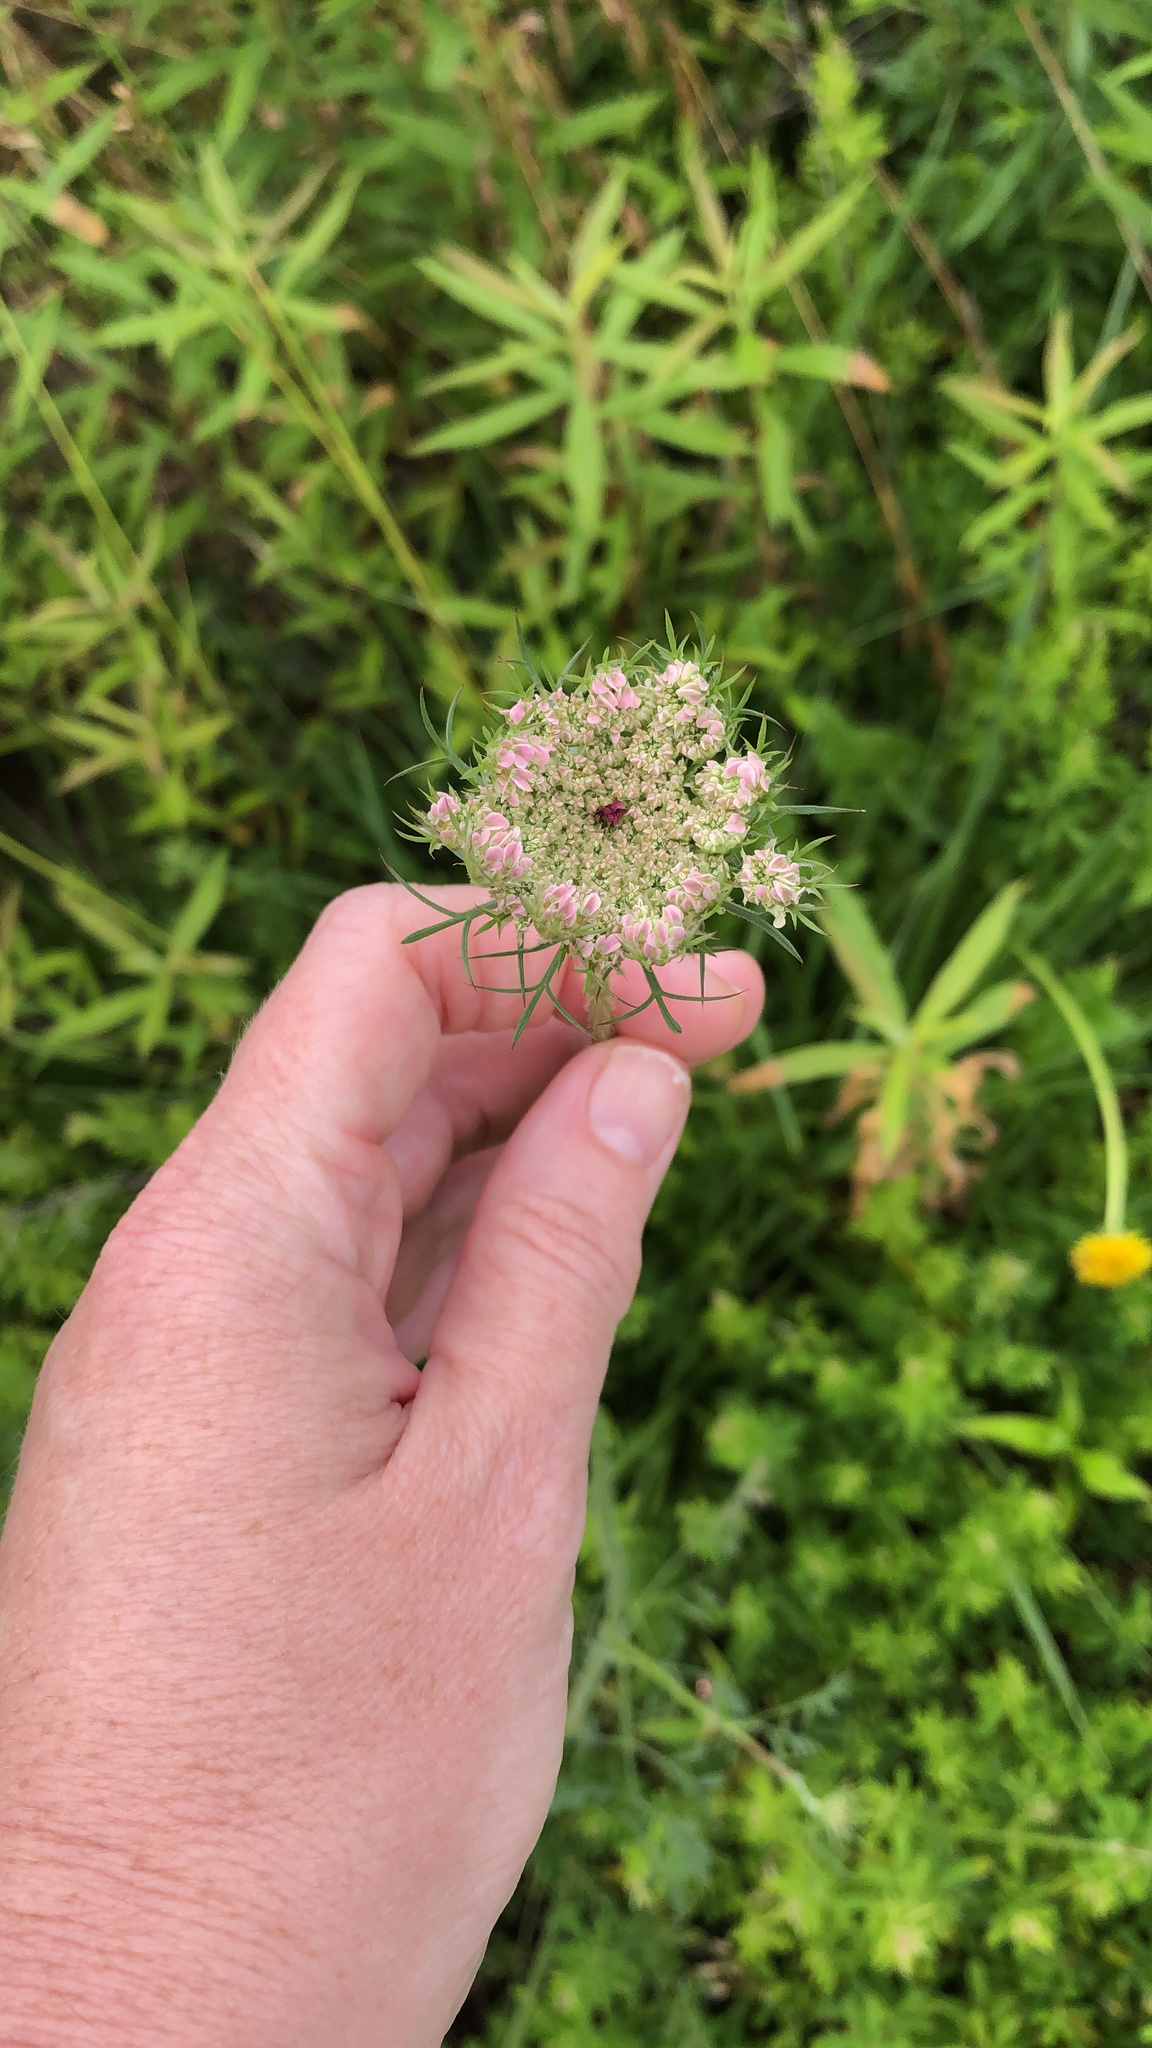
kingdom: Plantae
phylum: Tracheophyta
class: Magnoliopsida
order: Apiales
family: Apiaceae
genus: Daucus
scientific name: Daucus carota
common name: Wild carrot
